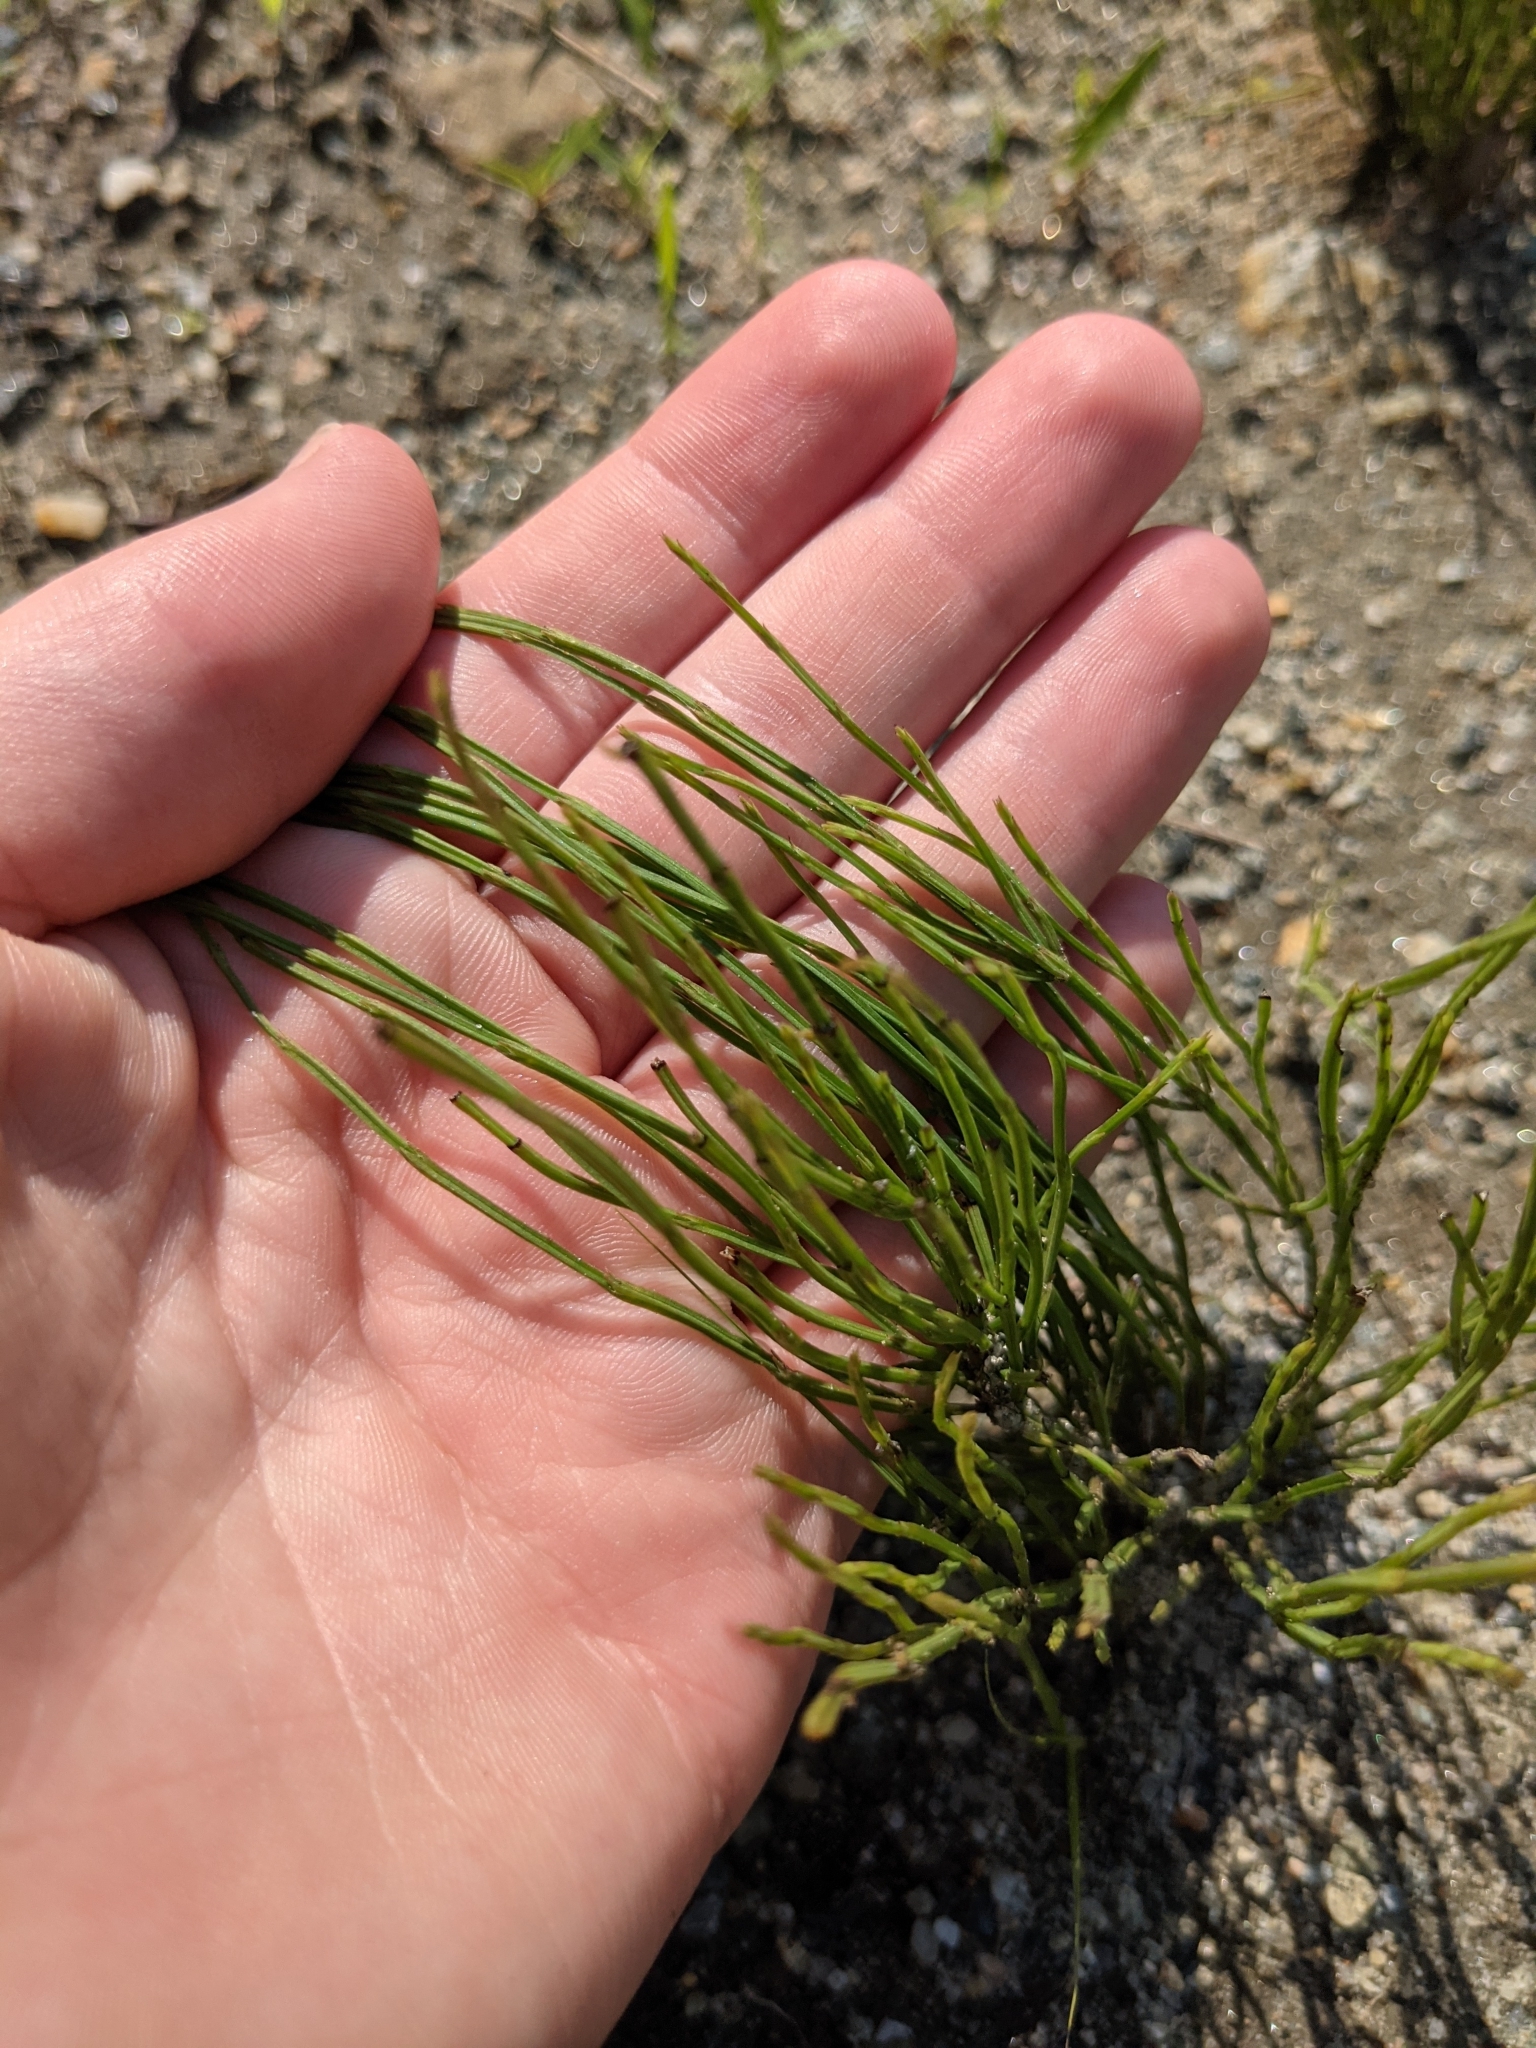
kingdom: Plantae
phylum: Tracheophyta
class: Polypodiopsida
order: Equisetales
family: Equisetaceae
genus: Equisetum
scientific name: Equisetum arvense
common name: Field horsetail
